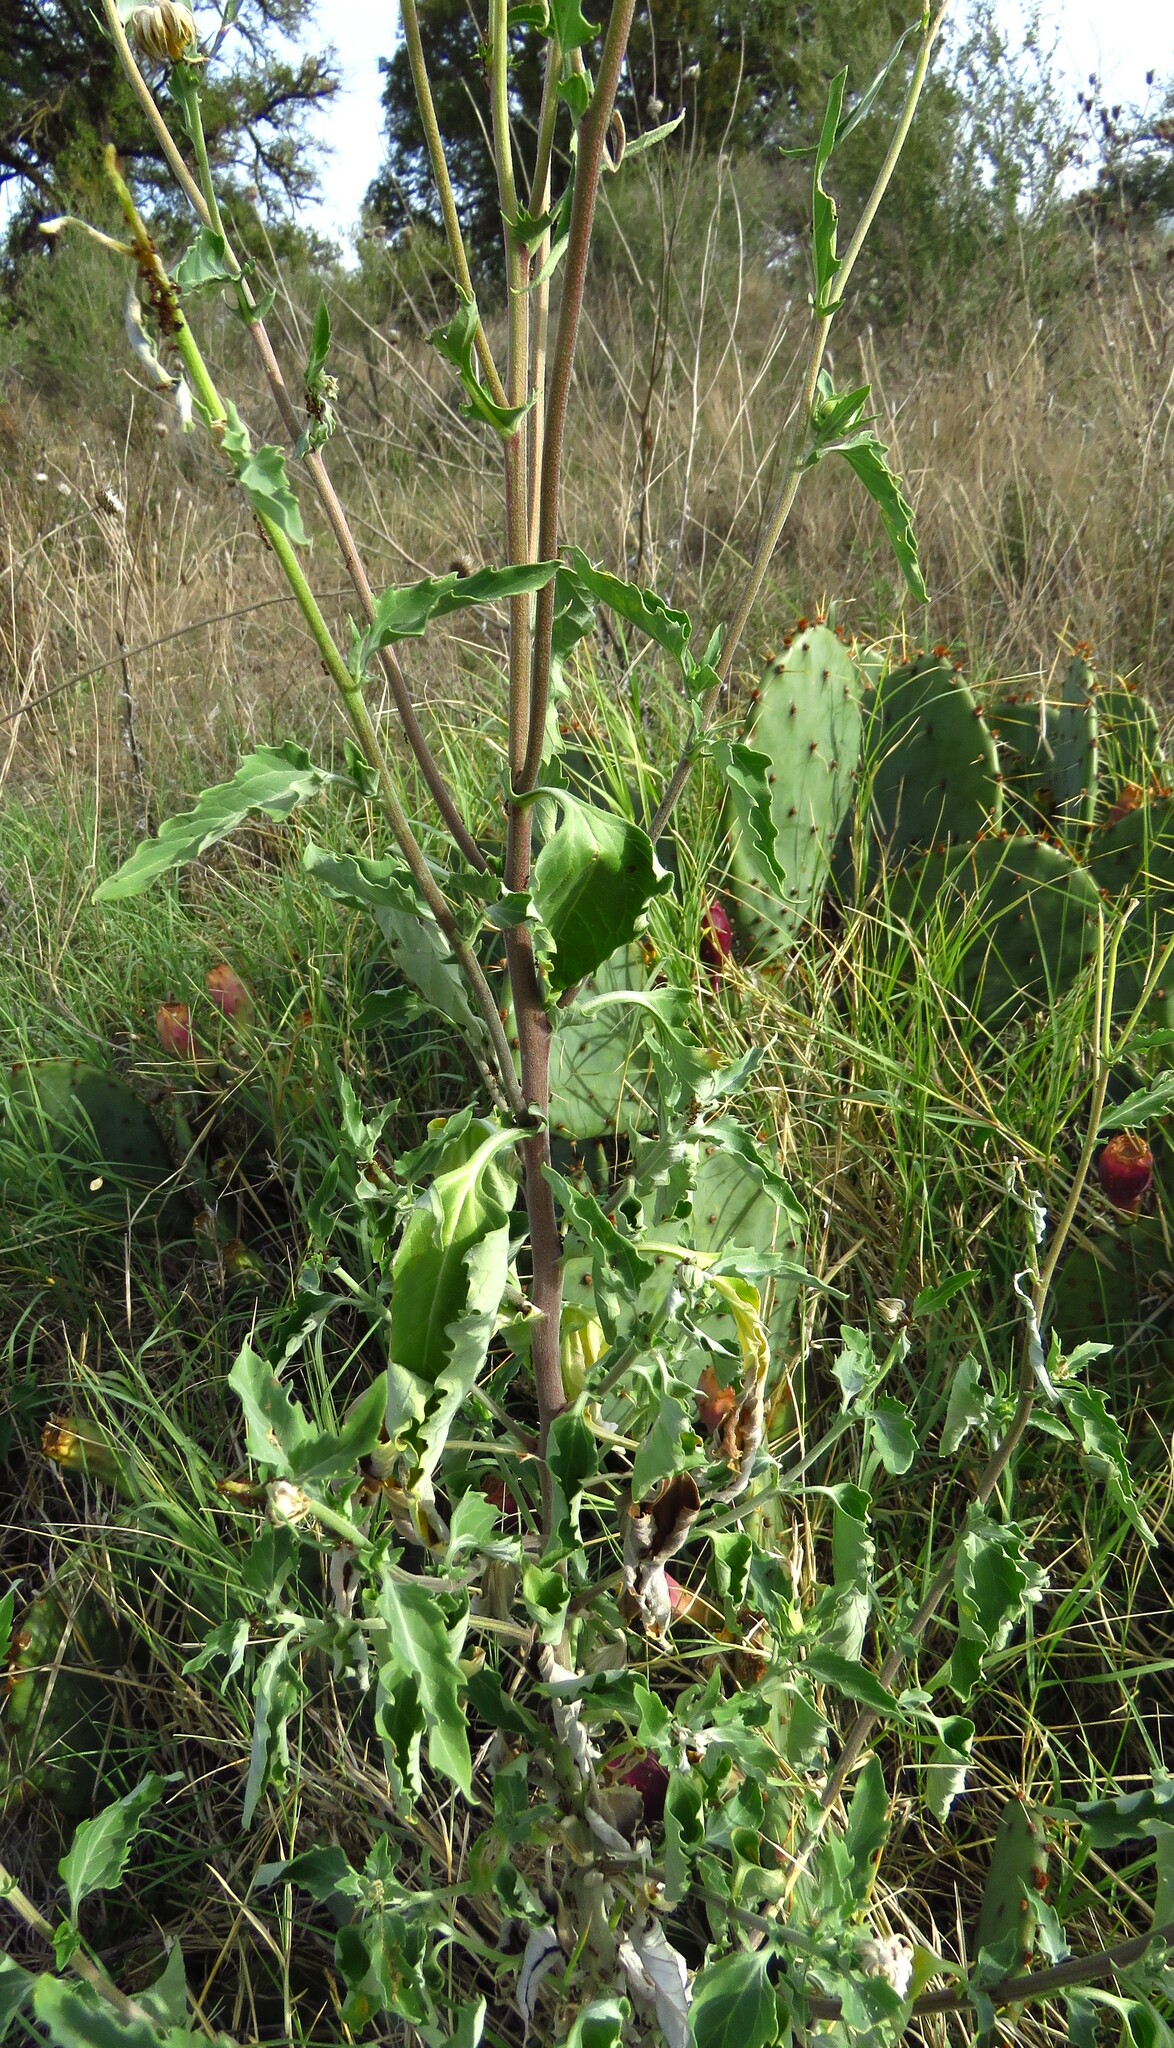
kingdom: Plantae
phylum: Tracheophyta
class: Magnoliopsida
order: Asterales
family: Asteraceae
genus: Verbesina
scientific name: Verbesina encelioides
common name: Golden crownbeard
